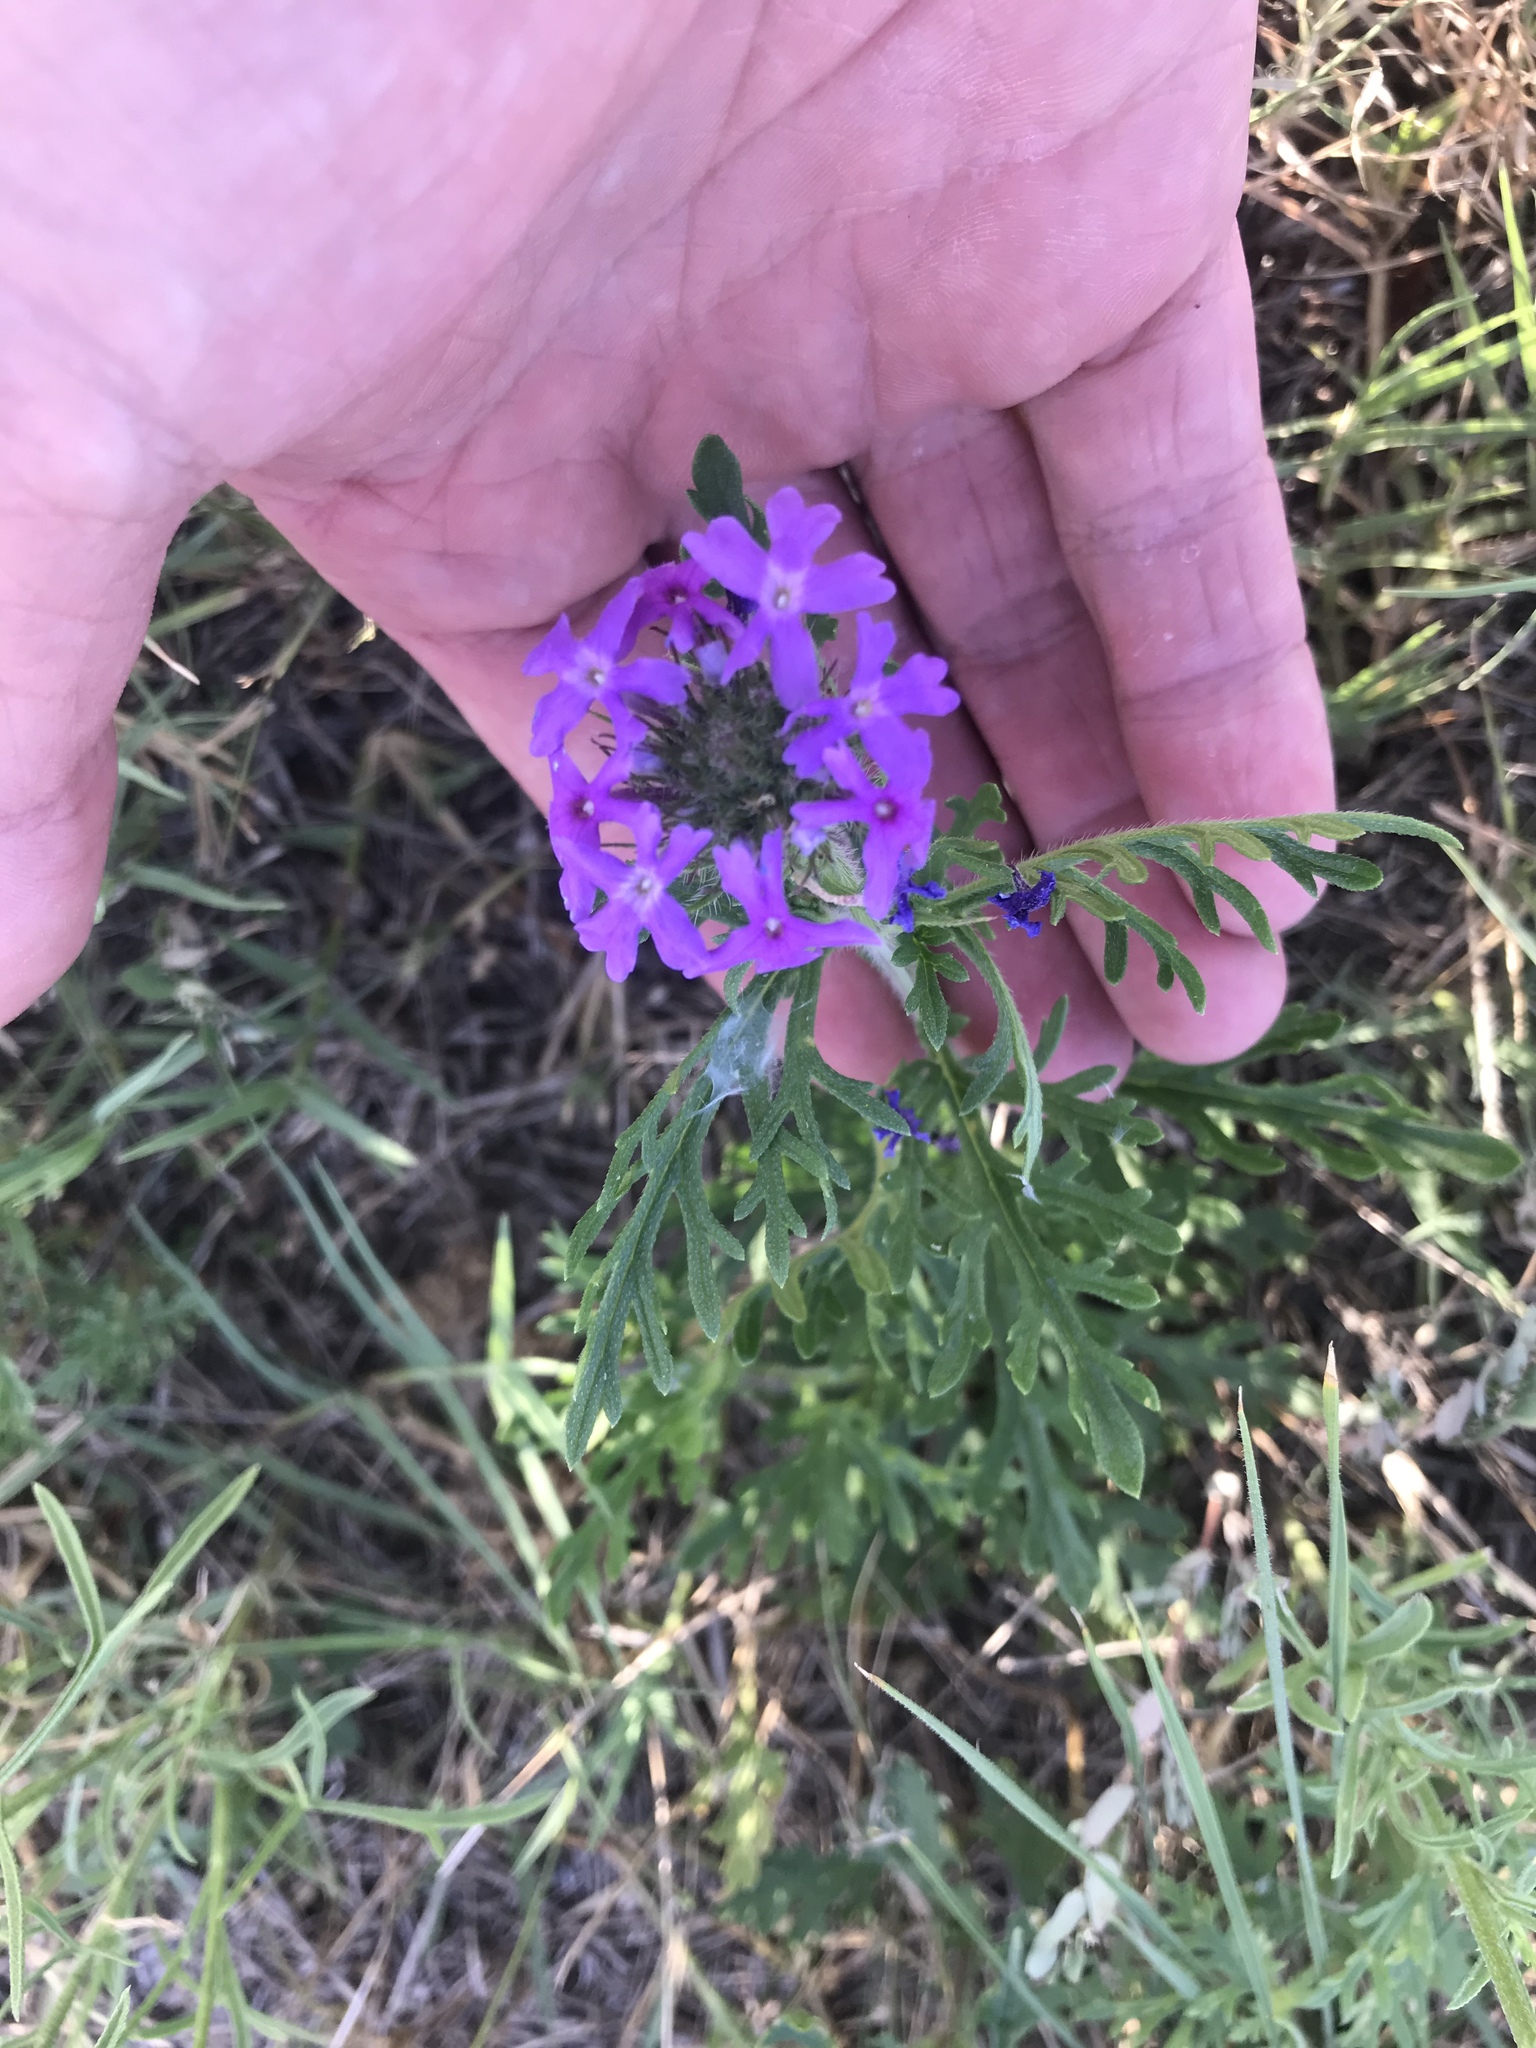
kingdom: Plantae
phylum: Tracheophyta
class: Magnoliopsida
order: Lamiales
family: Verbenaceae
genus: Verbena
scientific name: Verbena bipinnatifida
